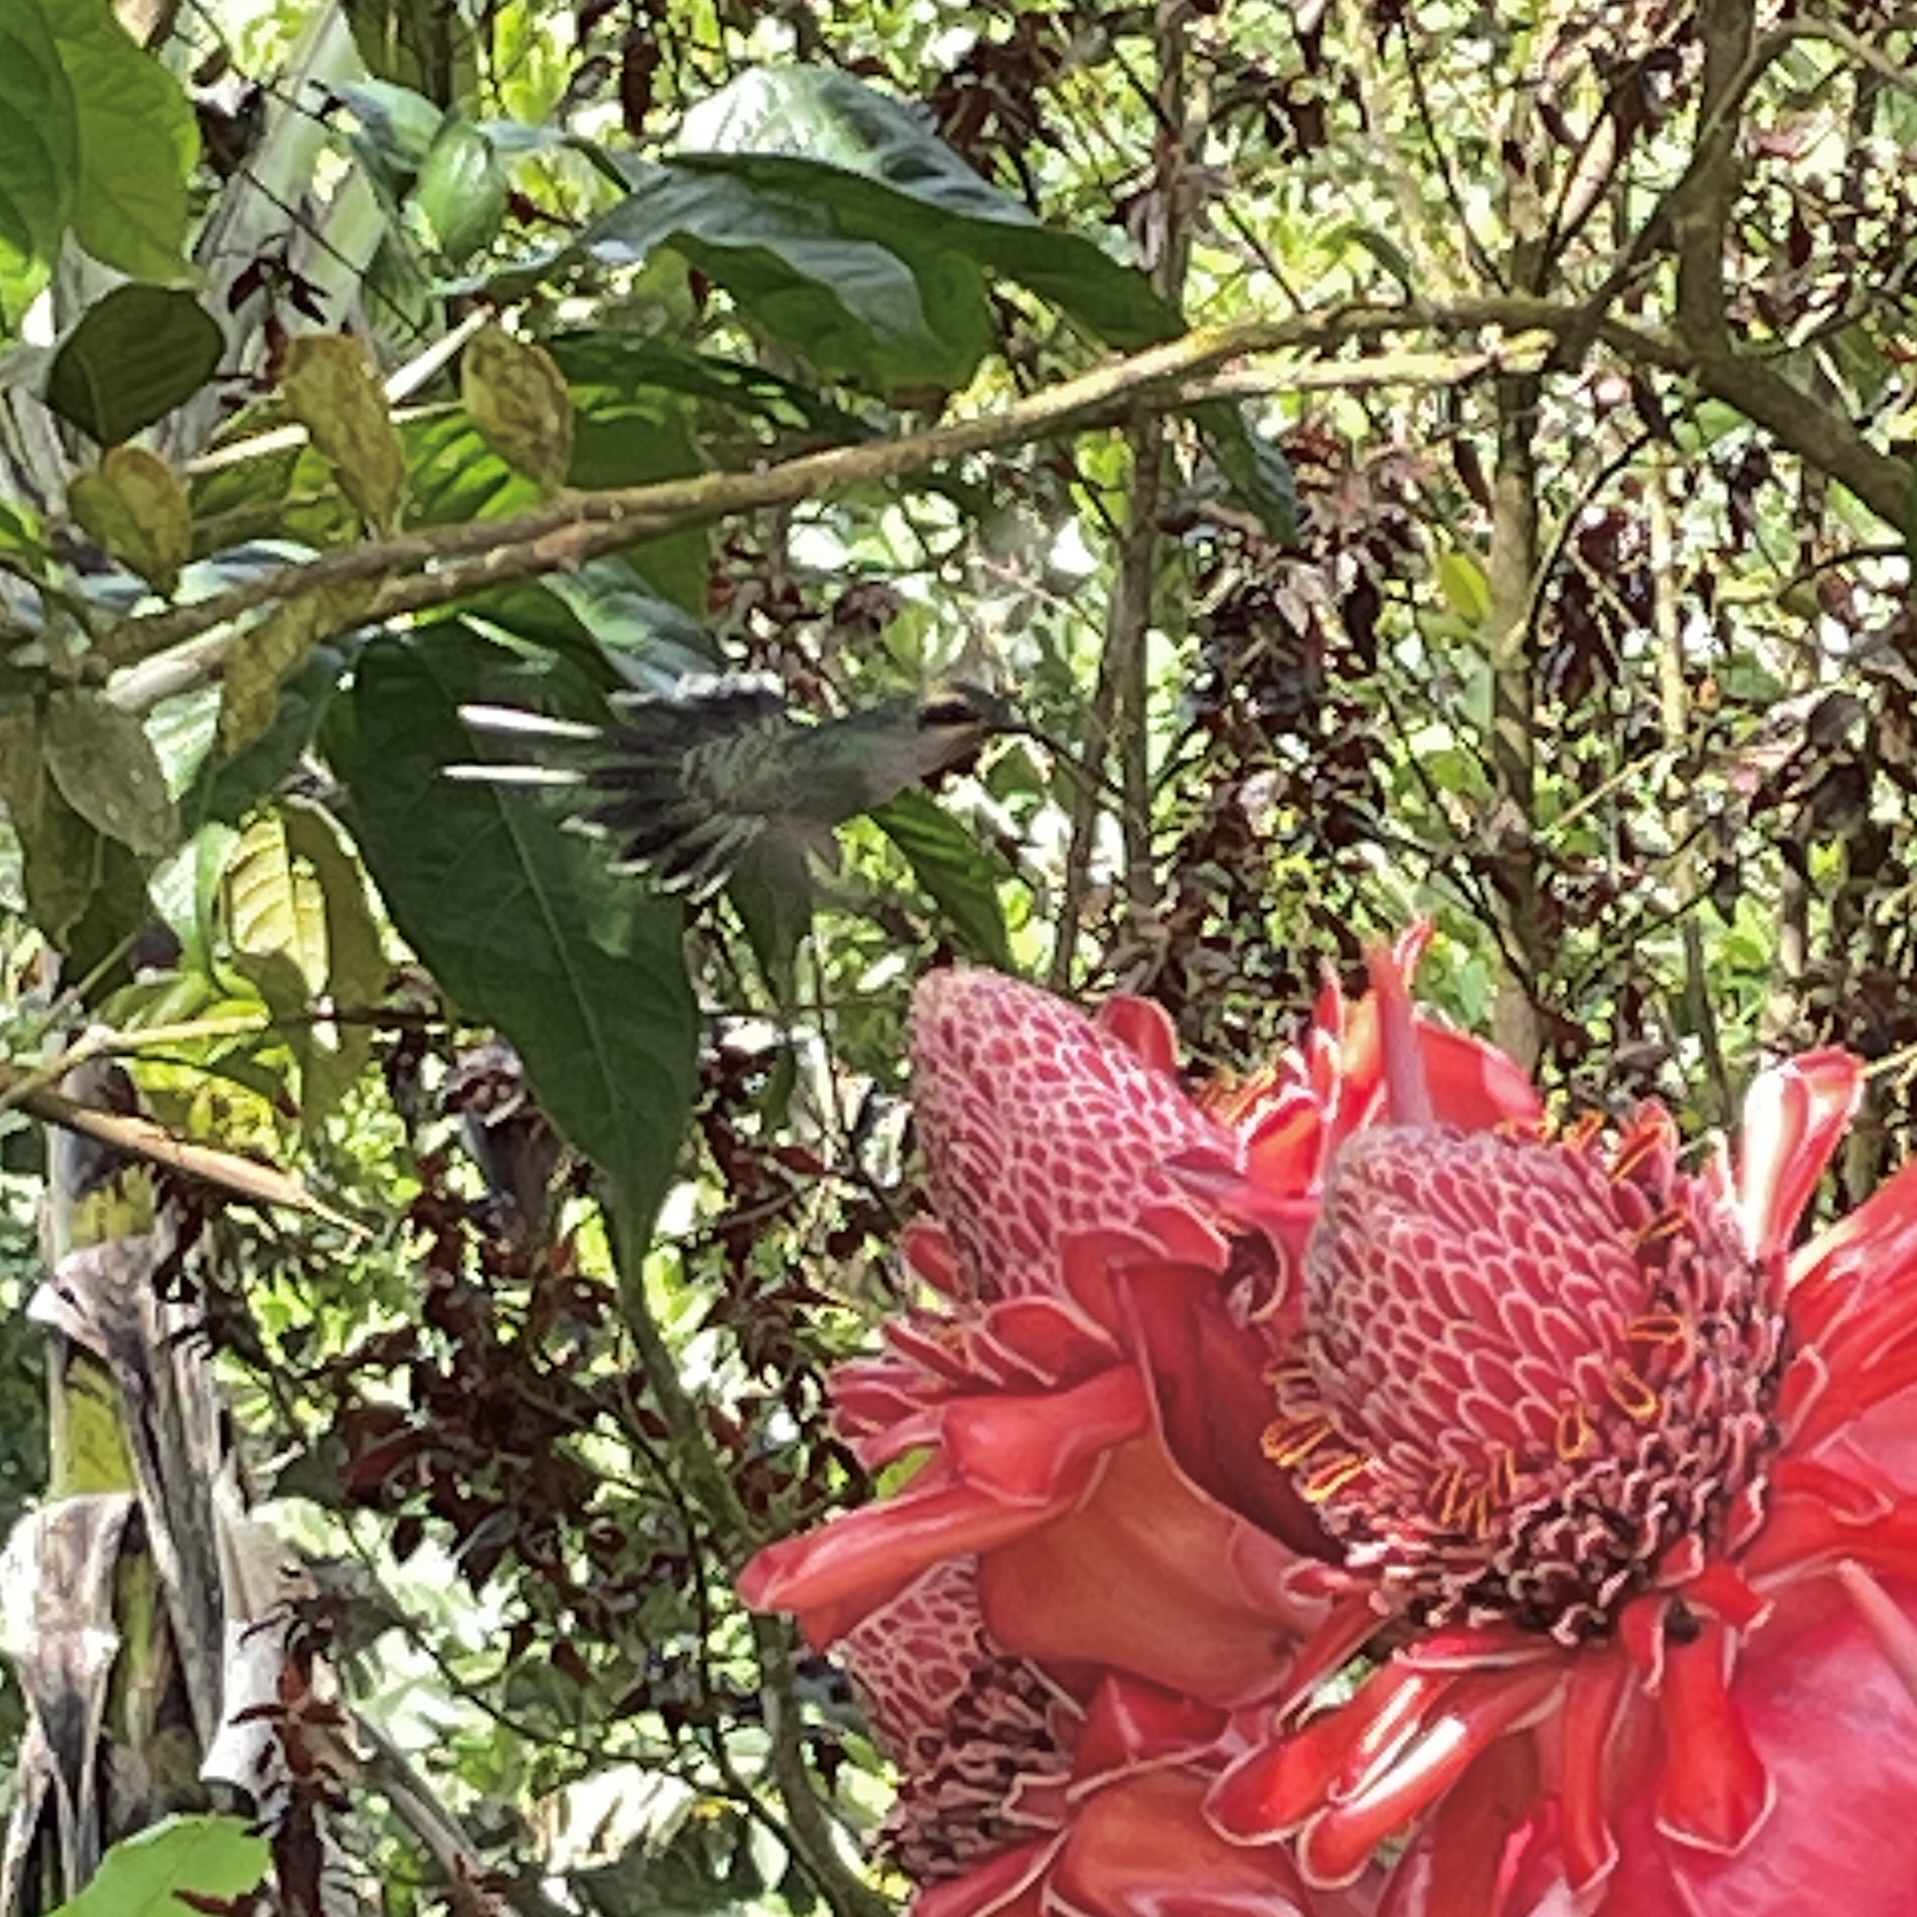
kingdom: Animalia
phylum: Chordata
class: Aves
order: Apodiformes
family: Trochilidae
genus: Phaethornis
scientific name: Phaethornis guy
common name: Green hermit
